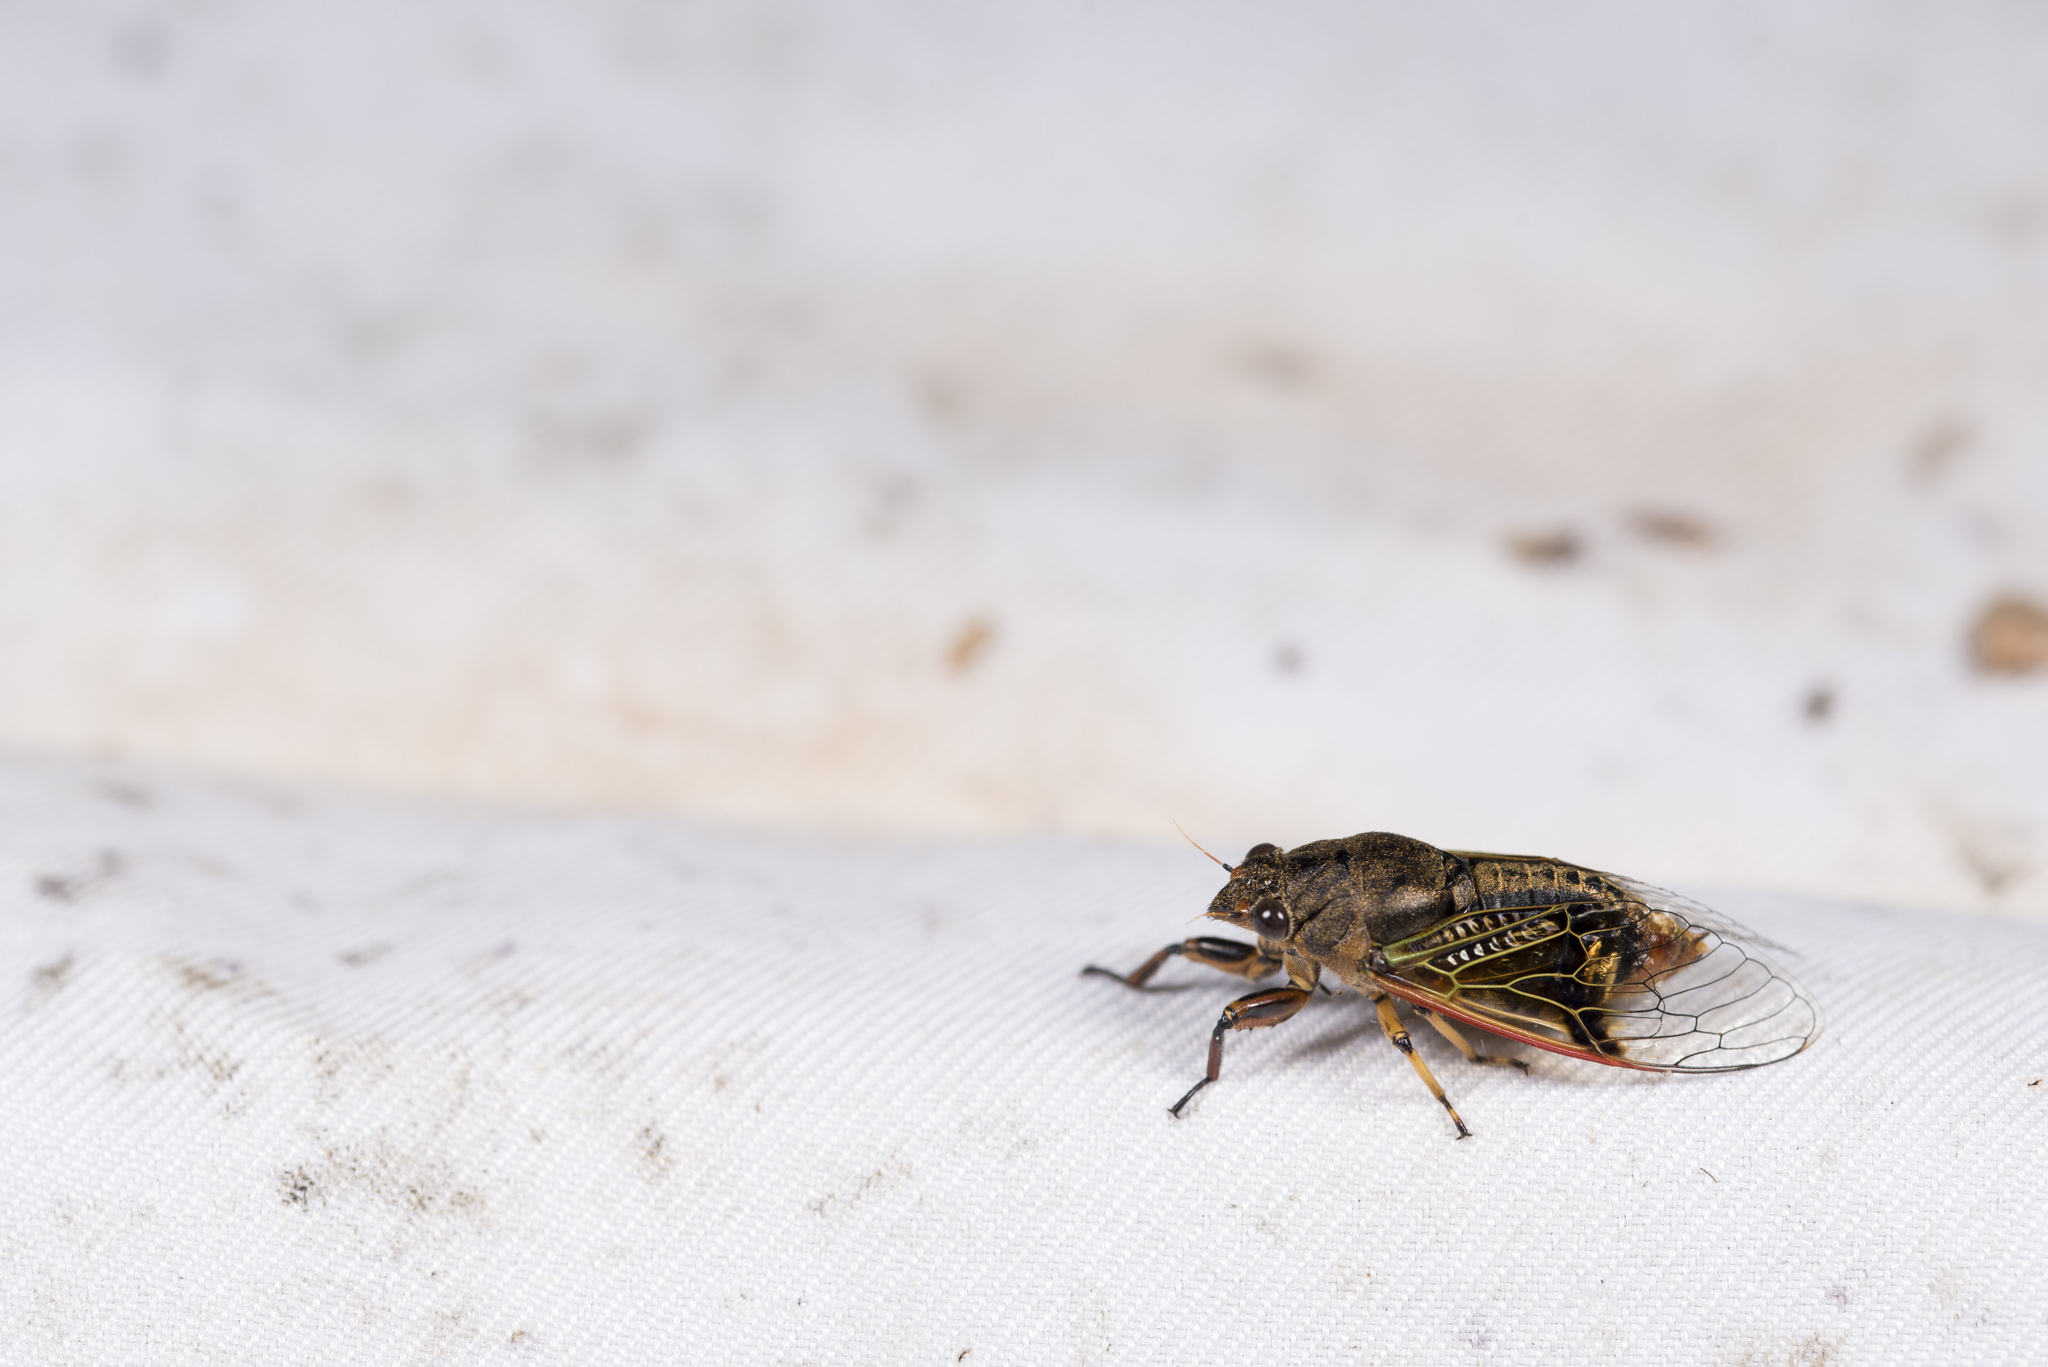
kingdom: Animalia
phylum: Arthropoda
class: Insecta
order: Hemiptera
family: Cicadidae
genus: Mogannia
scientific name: Mogannia formosana
